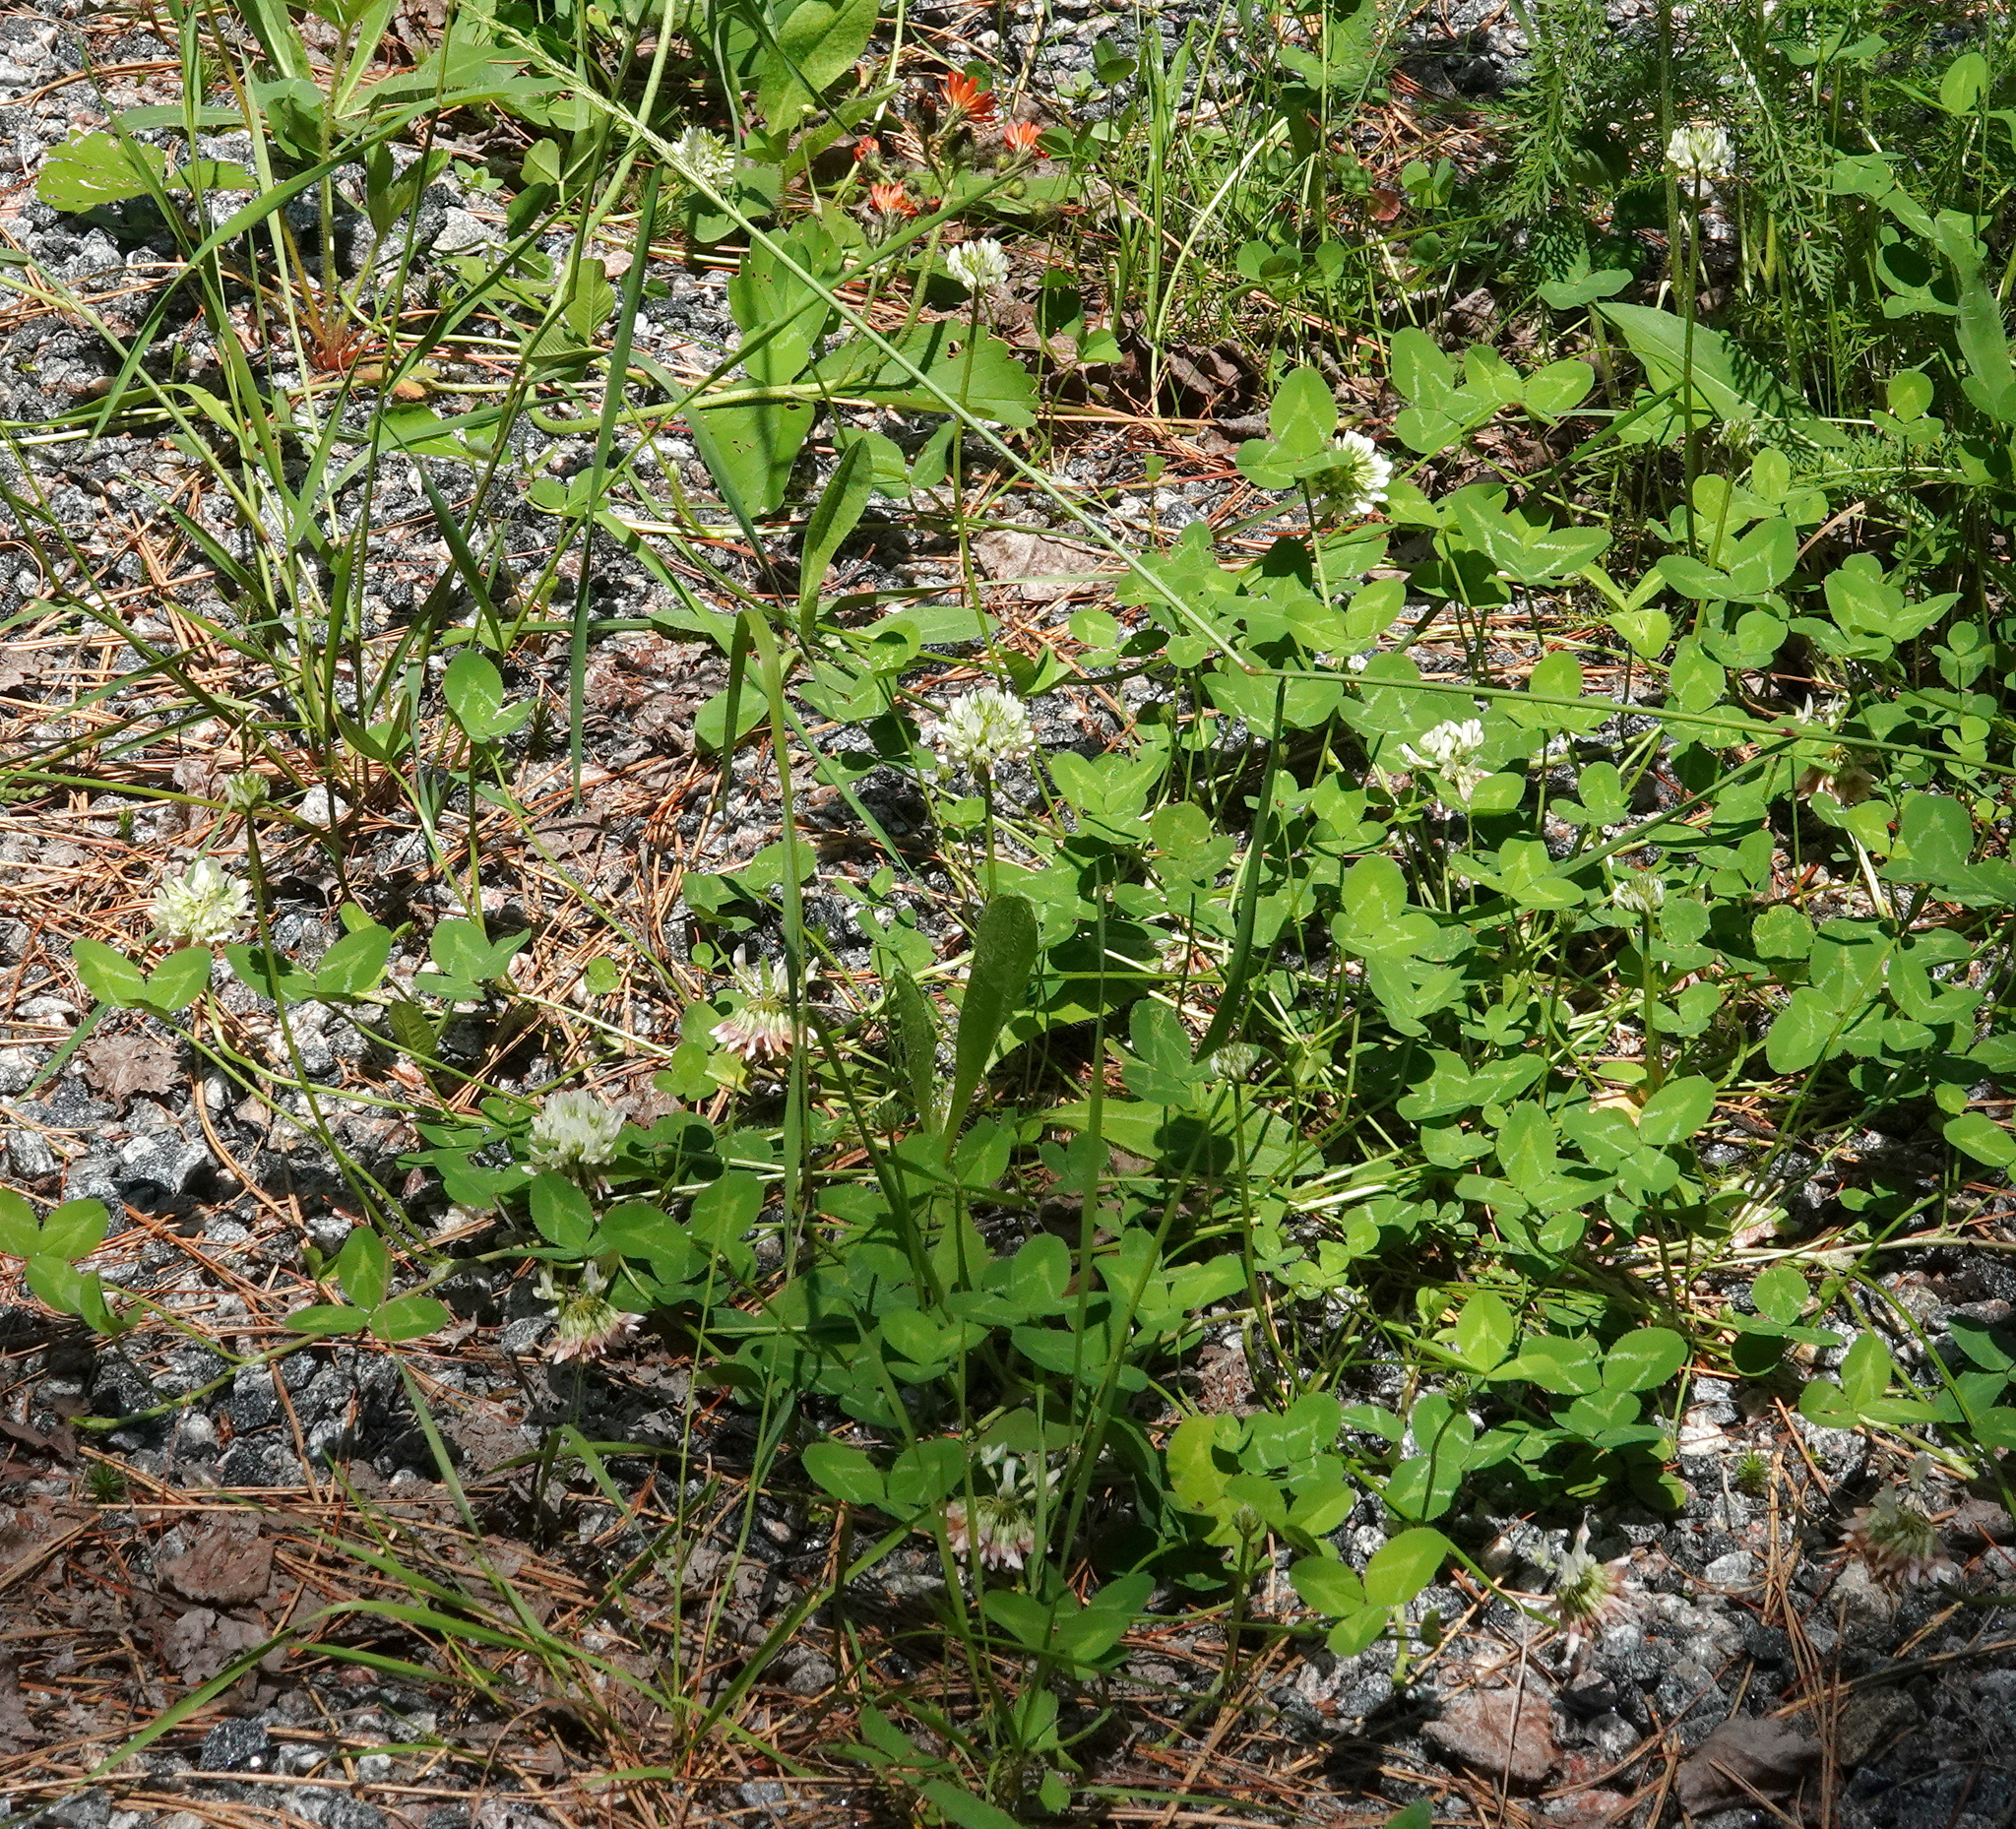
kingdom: Plantae
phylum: Tracheophyta
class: Magnoliopsida
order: Fabales
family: Fabaceae
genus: Trifolium
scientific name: Trifolium repens
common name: White clover
